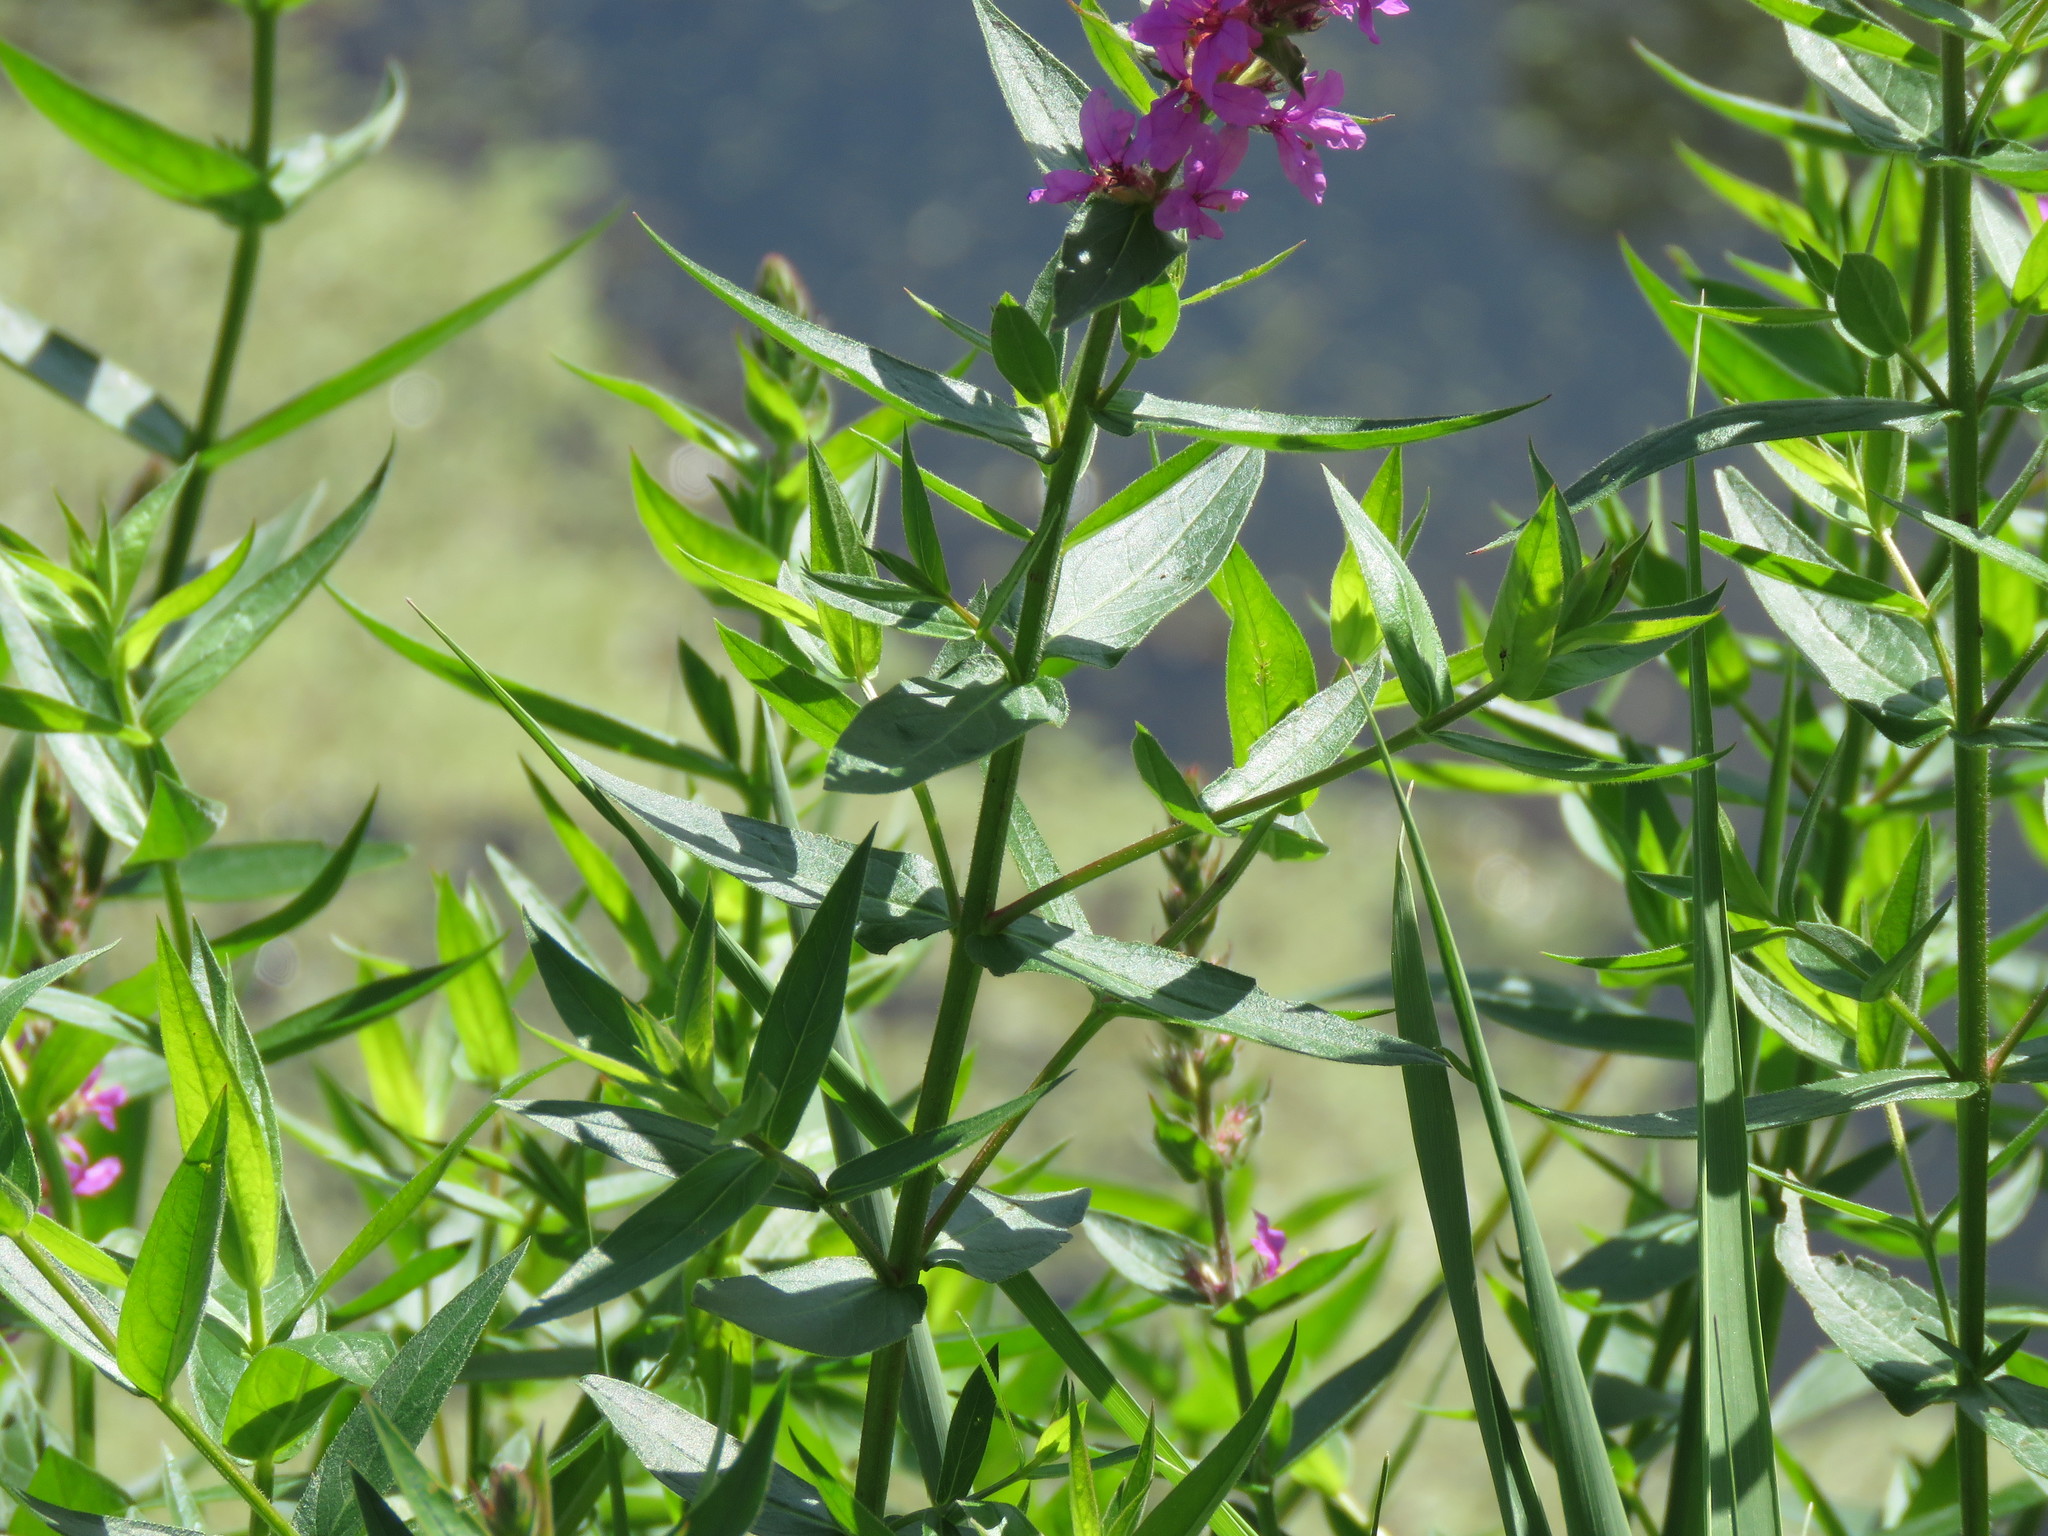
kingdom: Plantae
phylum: Tracheophyta
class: Magnoliopsida
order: Myrtales
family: Lythraceae
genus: Lythrum
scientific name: Lythrum salicaria
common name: Purple loosestrife
